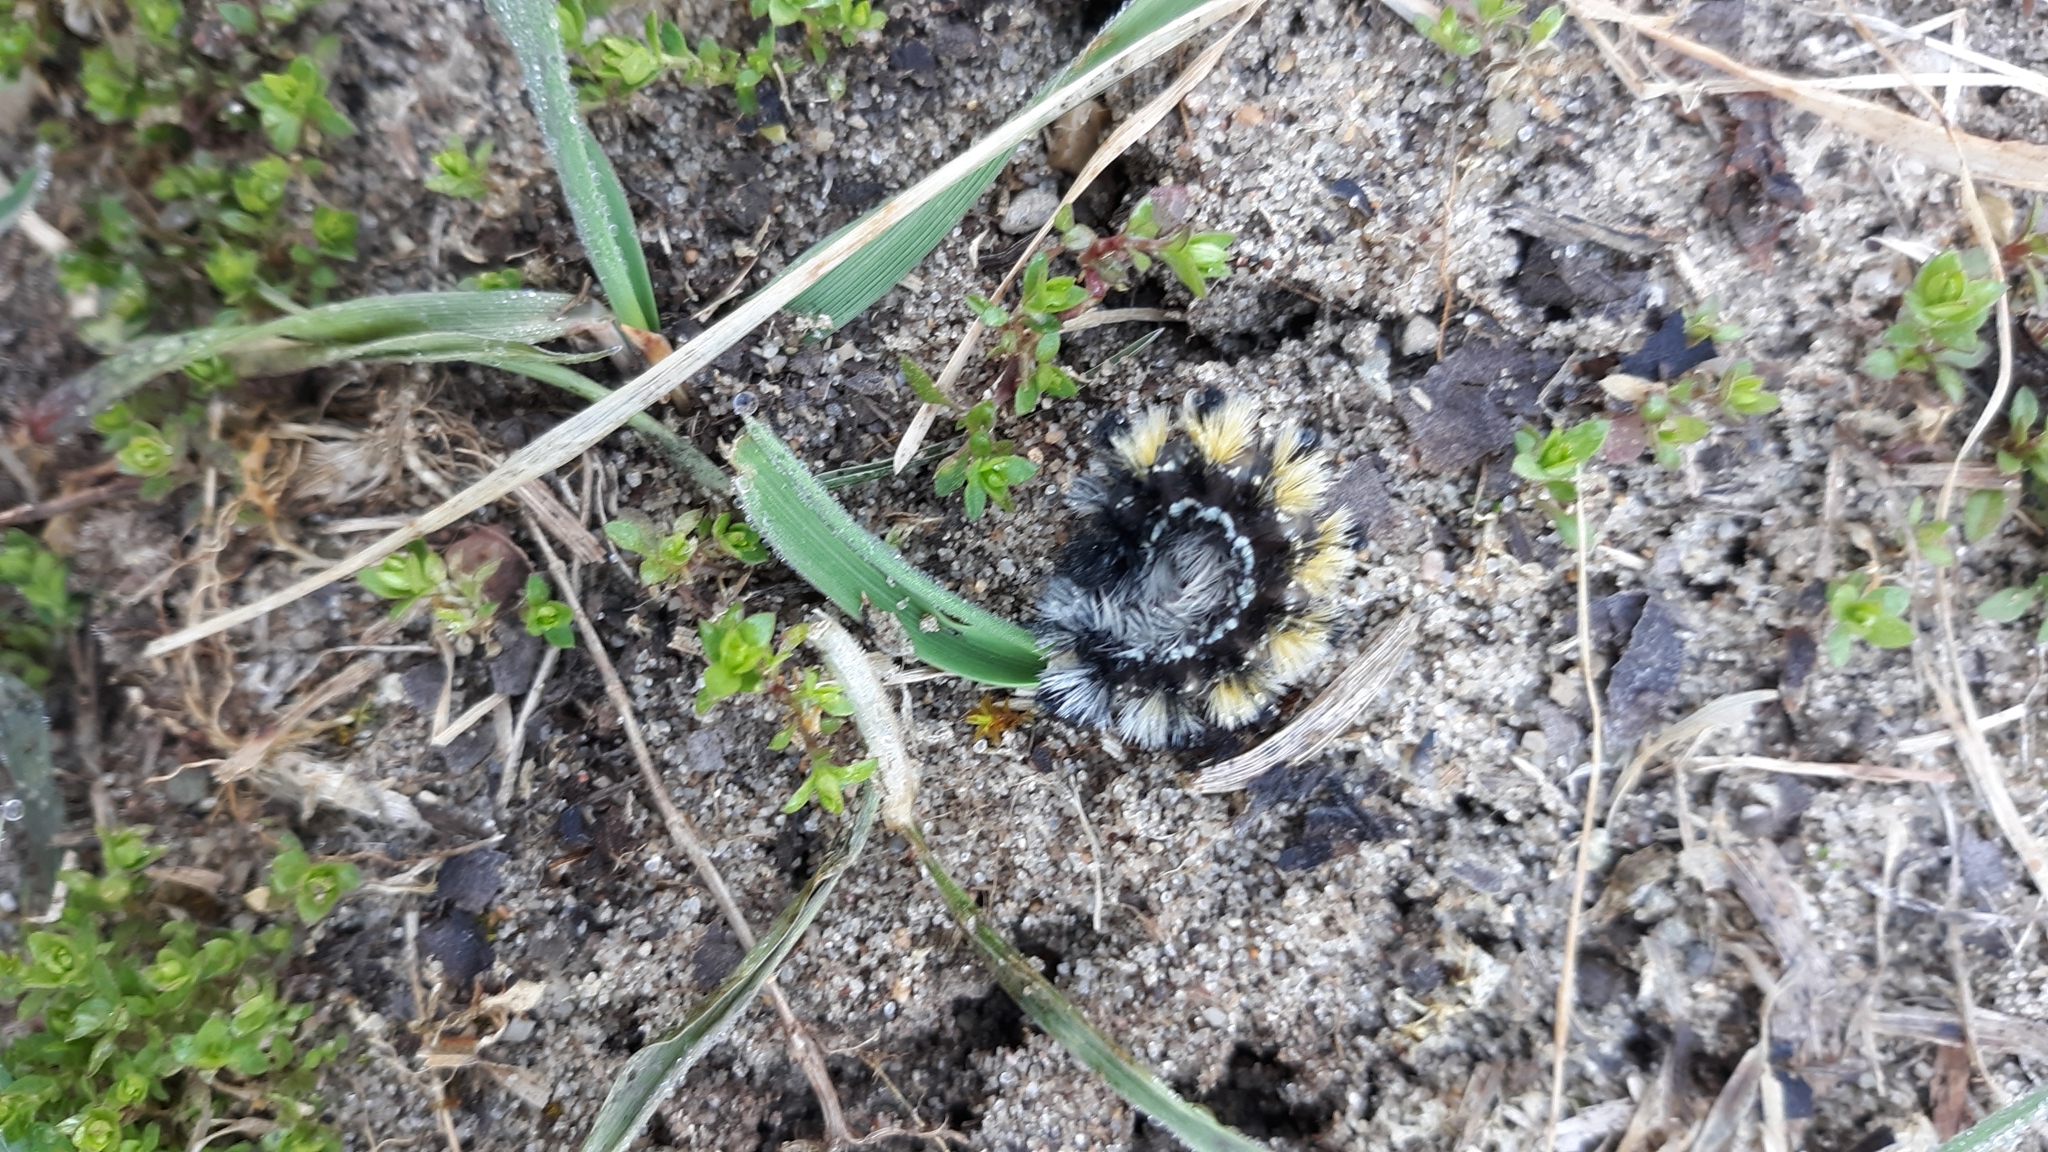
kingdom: Animalia
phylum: Arthropoda
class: Insecta
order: Lepidoptera
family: Erebidae
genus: Ctenucha
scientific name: Ctenucha virginica
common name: Virginia ctenucha moth
